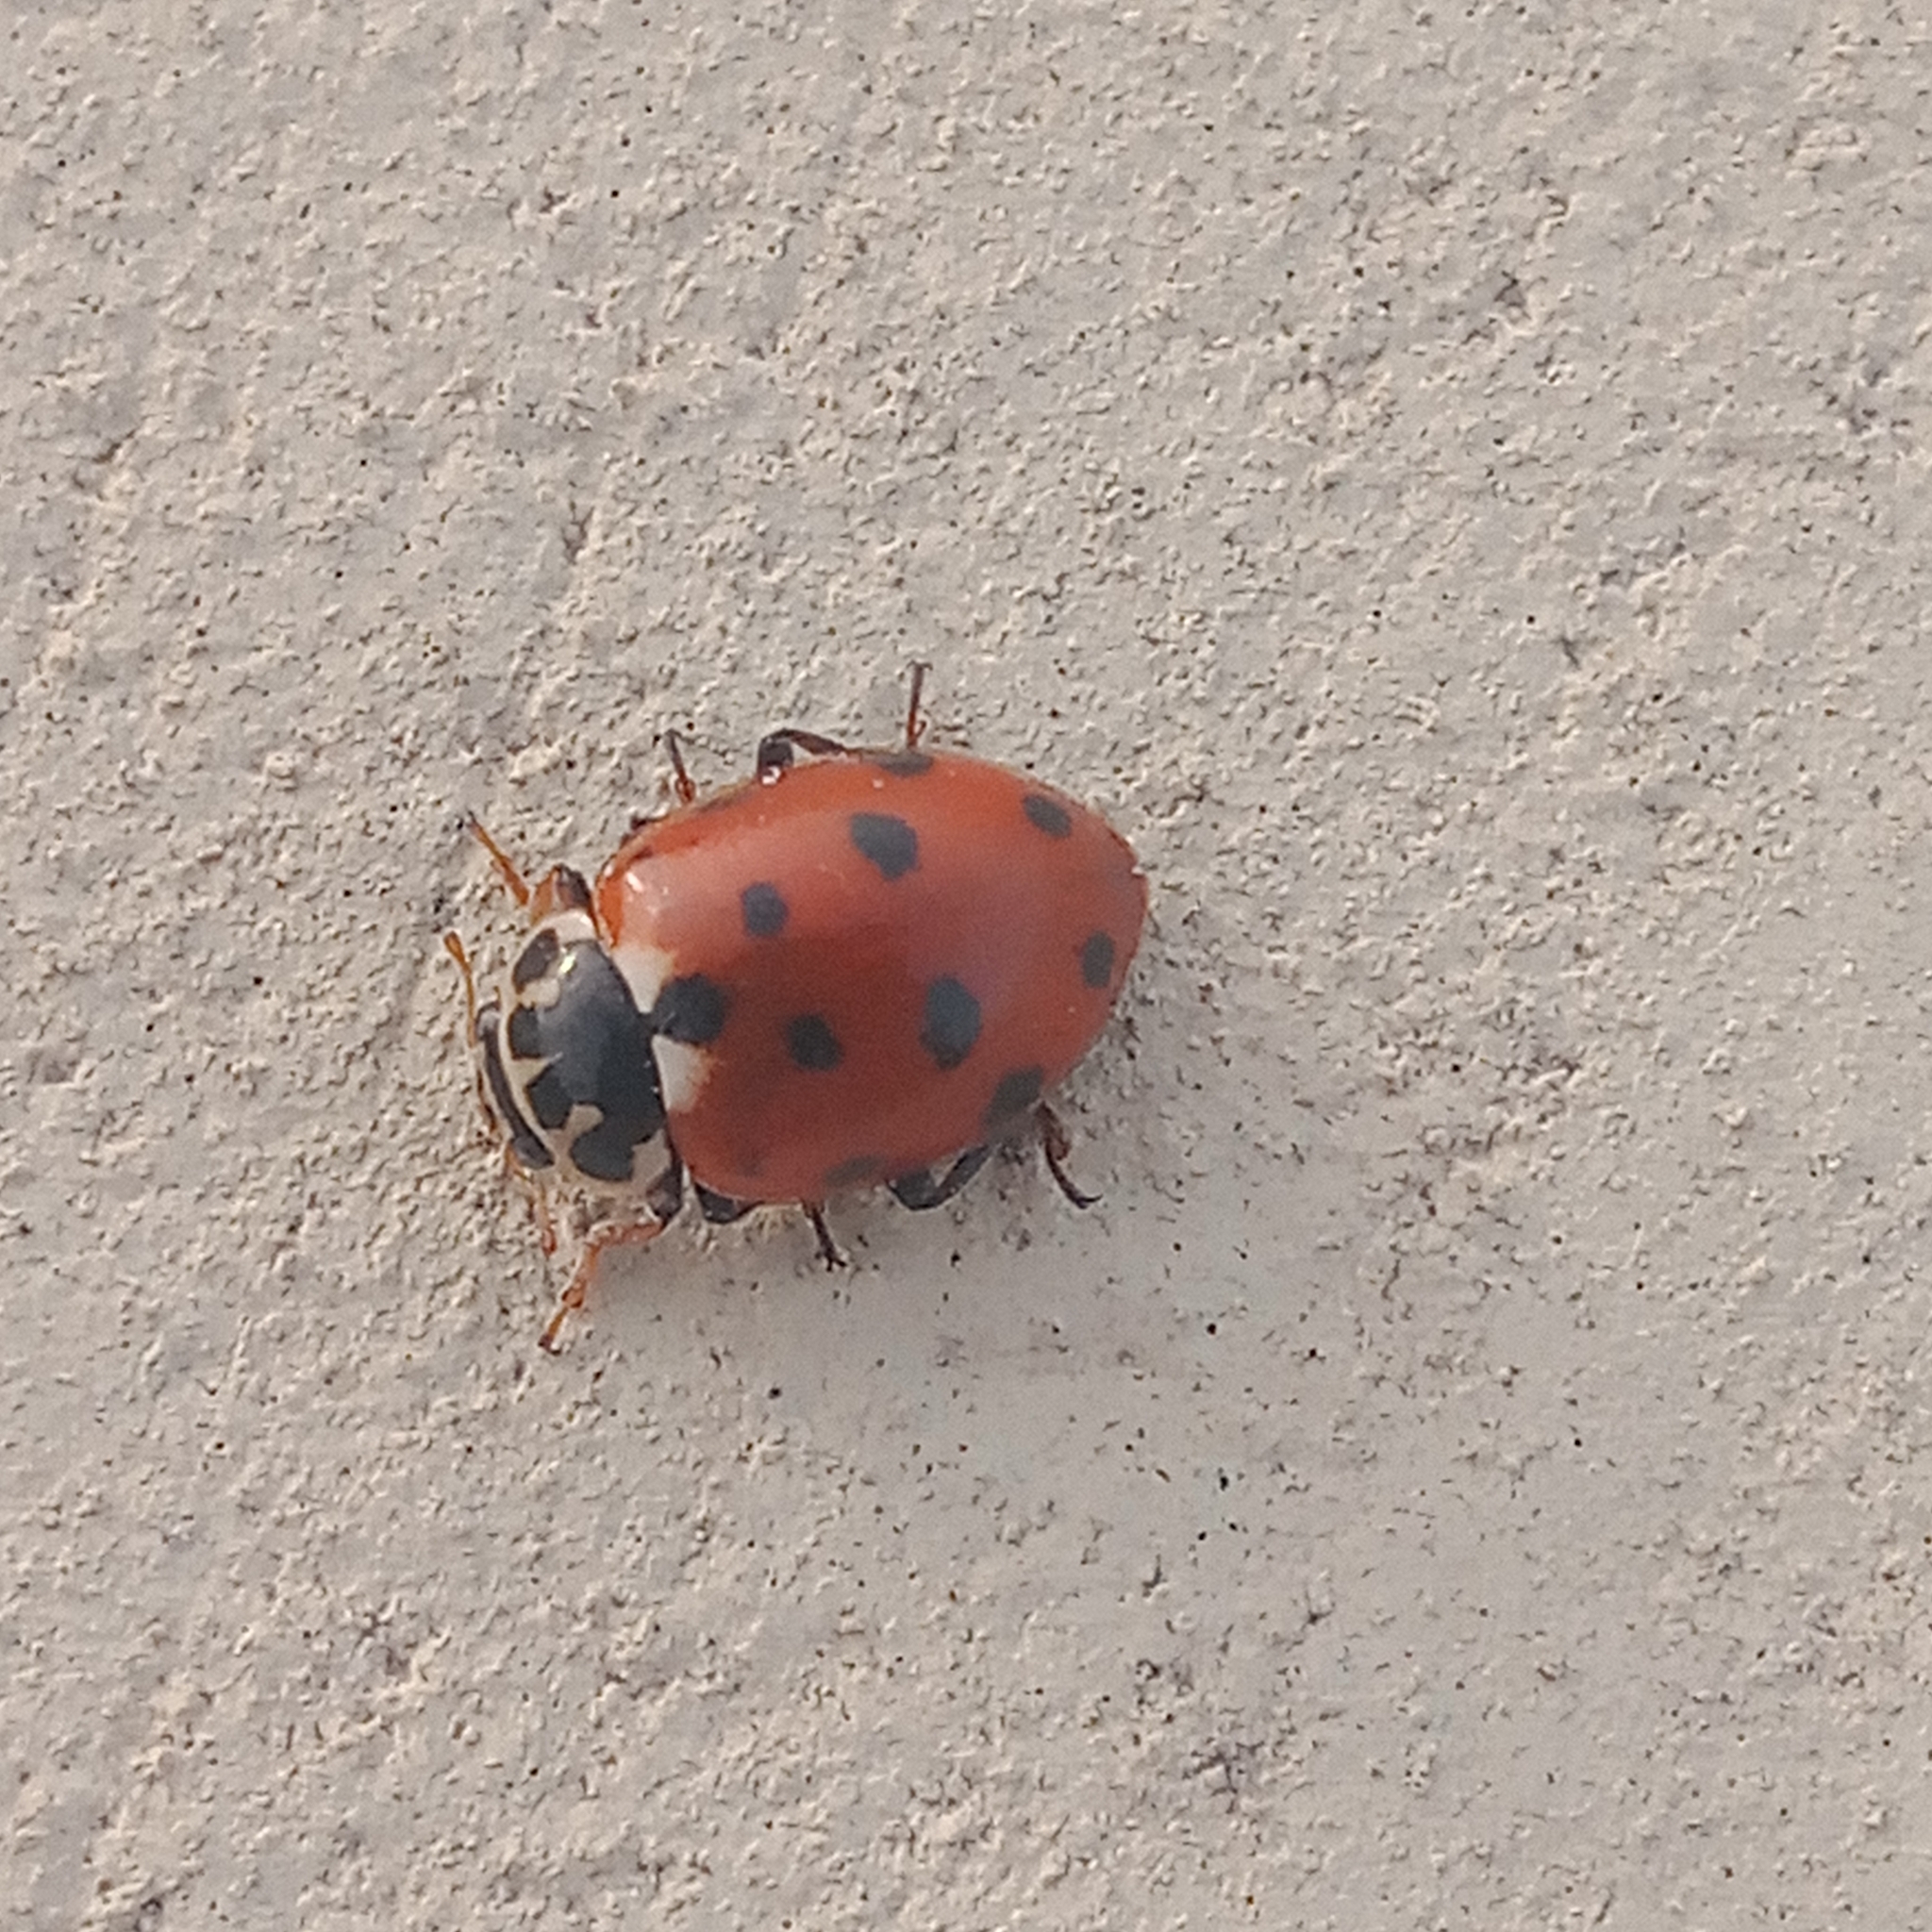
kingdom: Animalia
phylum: Arthropoda
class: Insecta
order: Coleoptera
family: Coccinellidae
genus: Hippodamia
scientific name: Hippodamia variegata
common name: Ladybird beetle
